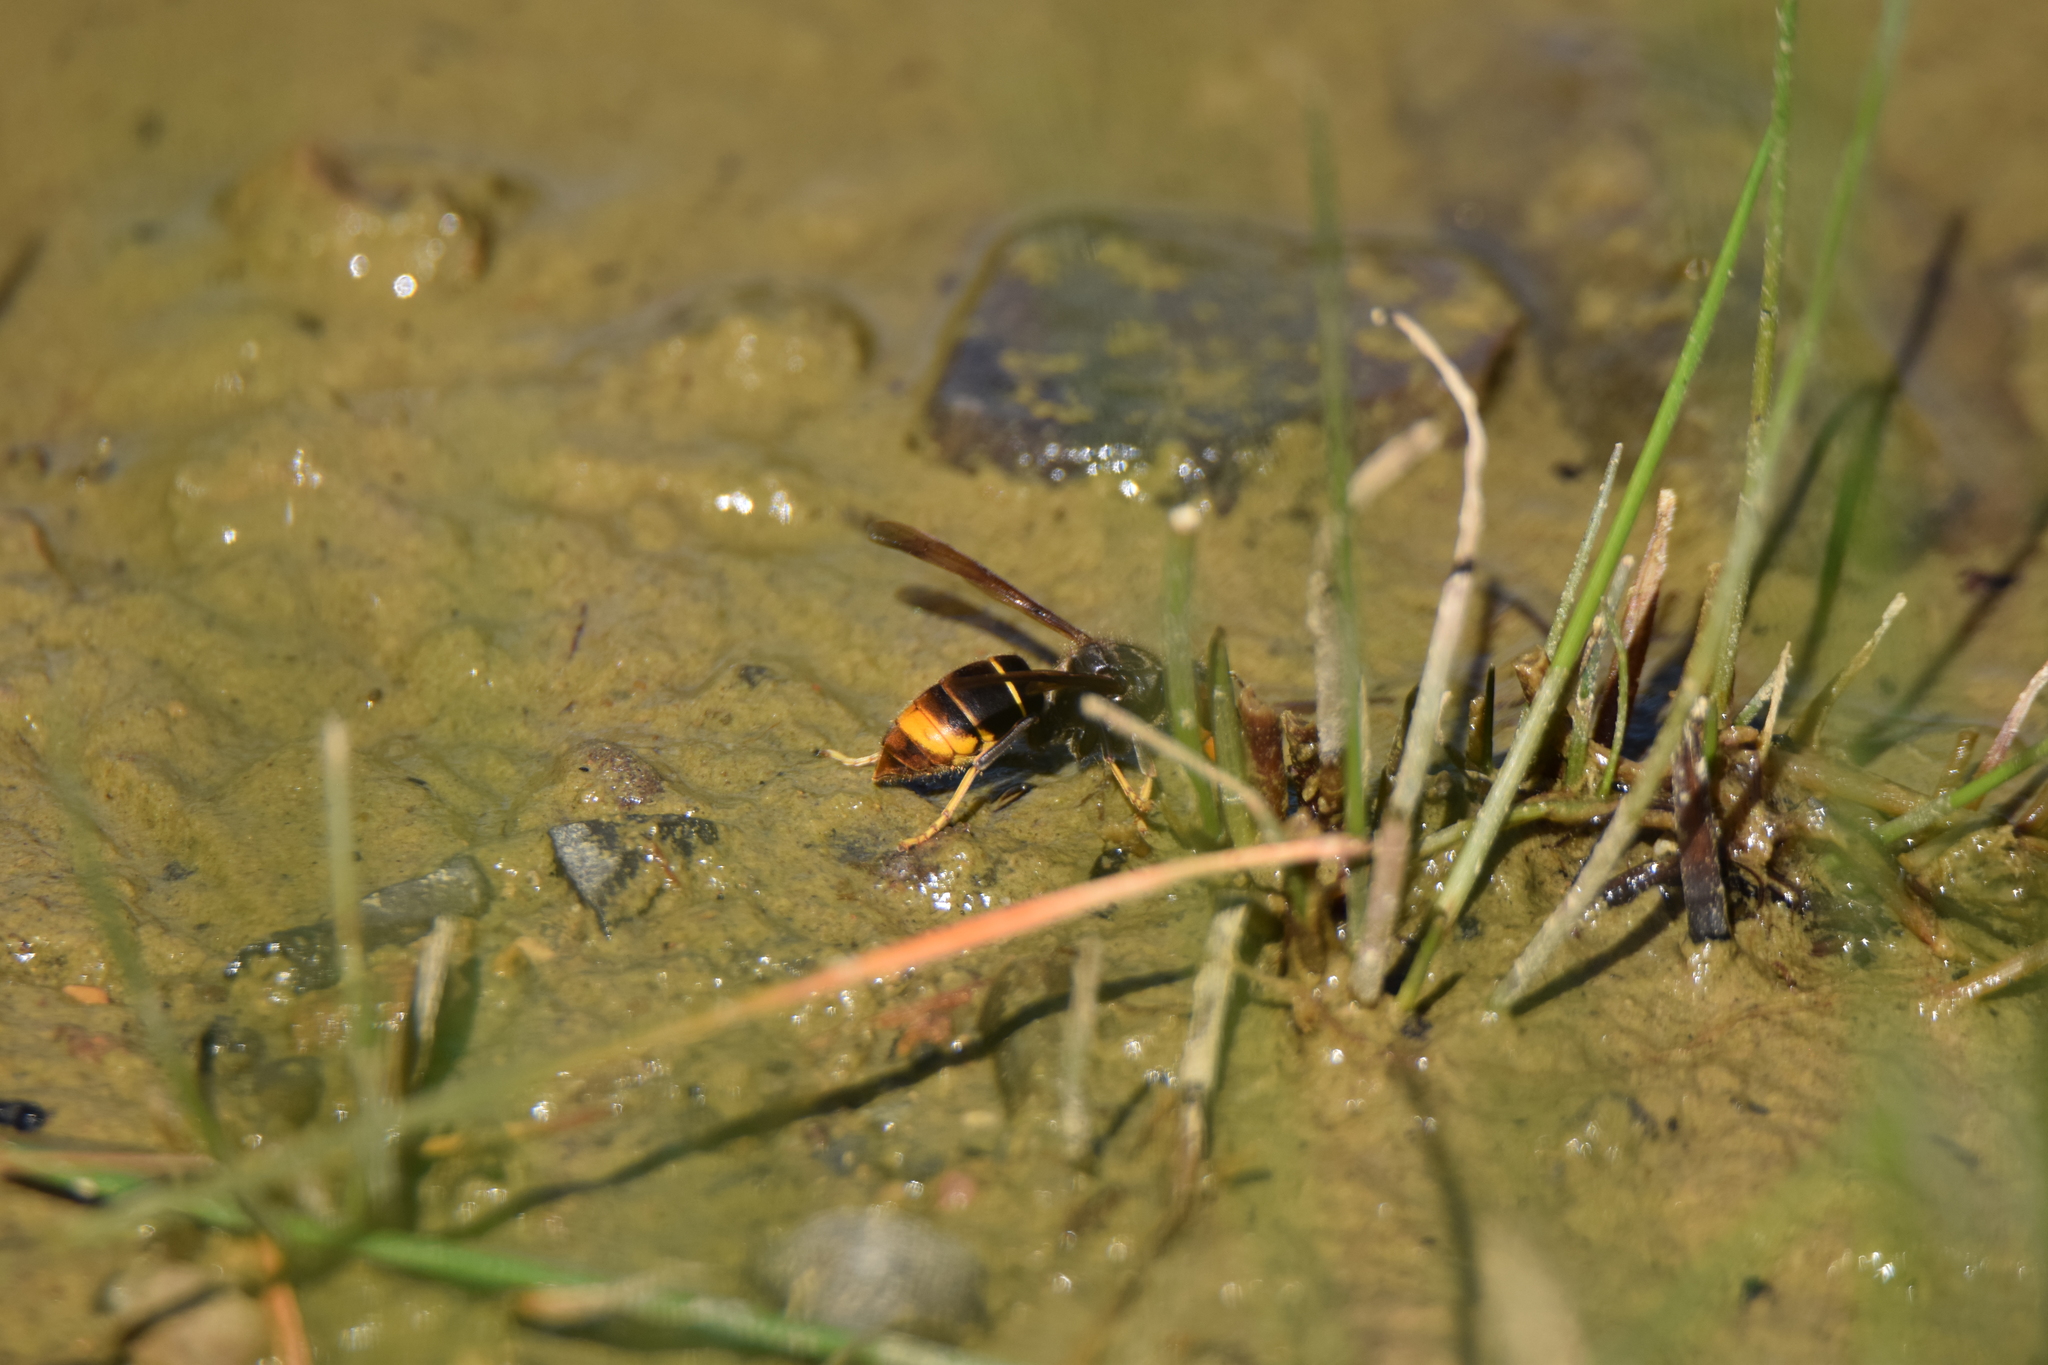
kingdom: Animalia
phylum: Arthropoda
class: Insecta
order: Hymenoptera
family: Vespidae
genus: Vespa
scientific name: Vespa velutina
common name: Asian hornet
